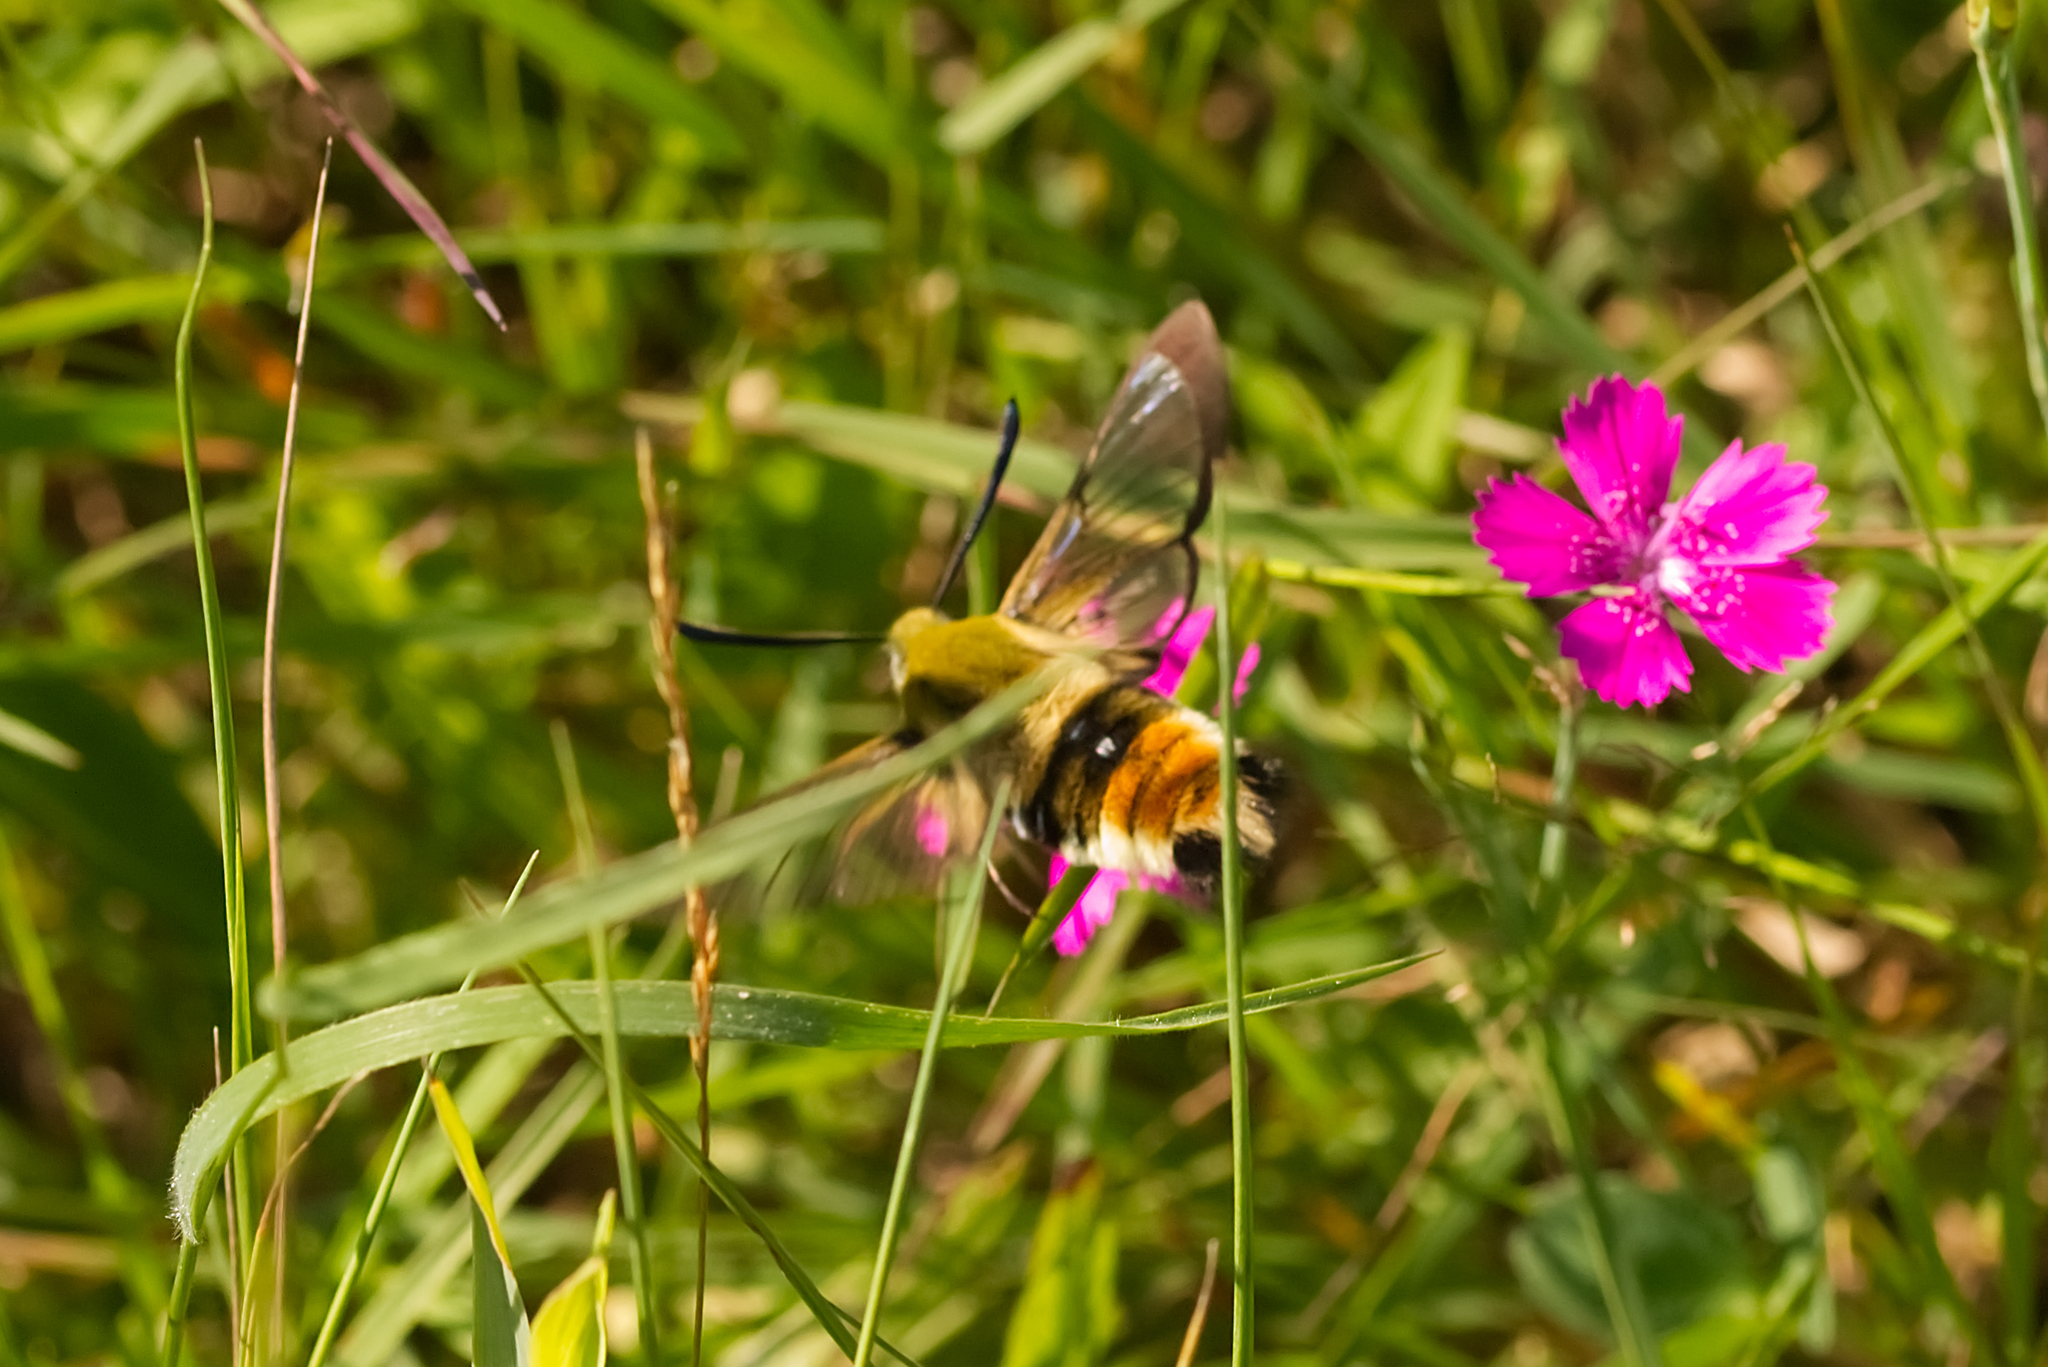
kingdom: Animalia
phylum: Arthropoda
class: Insecta
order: Lepidoptera
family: Sphingidae
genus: Hemaris
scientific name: Hemaris tityus
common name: Narrow-bordered bee hawk-moth
